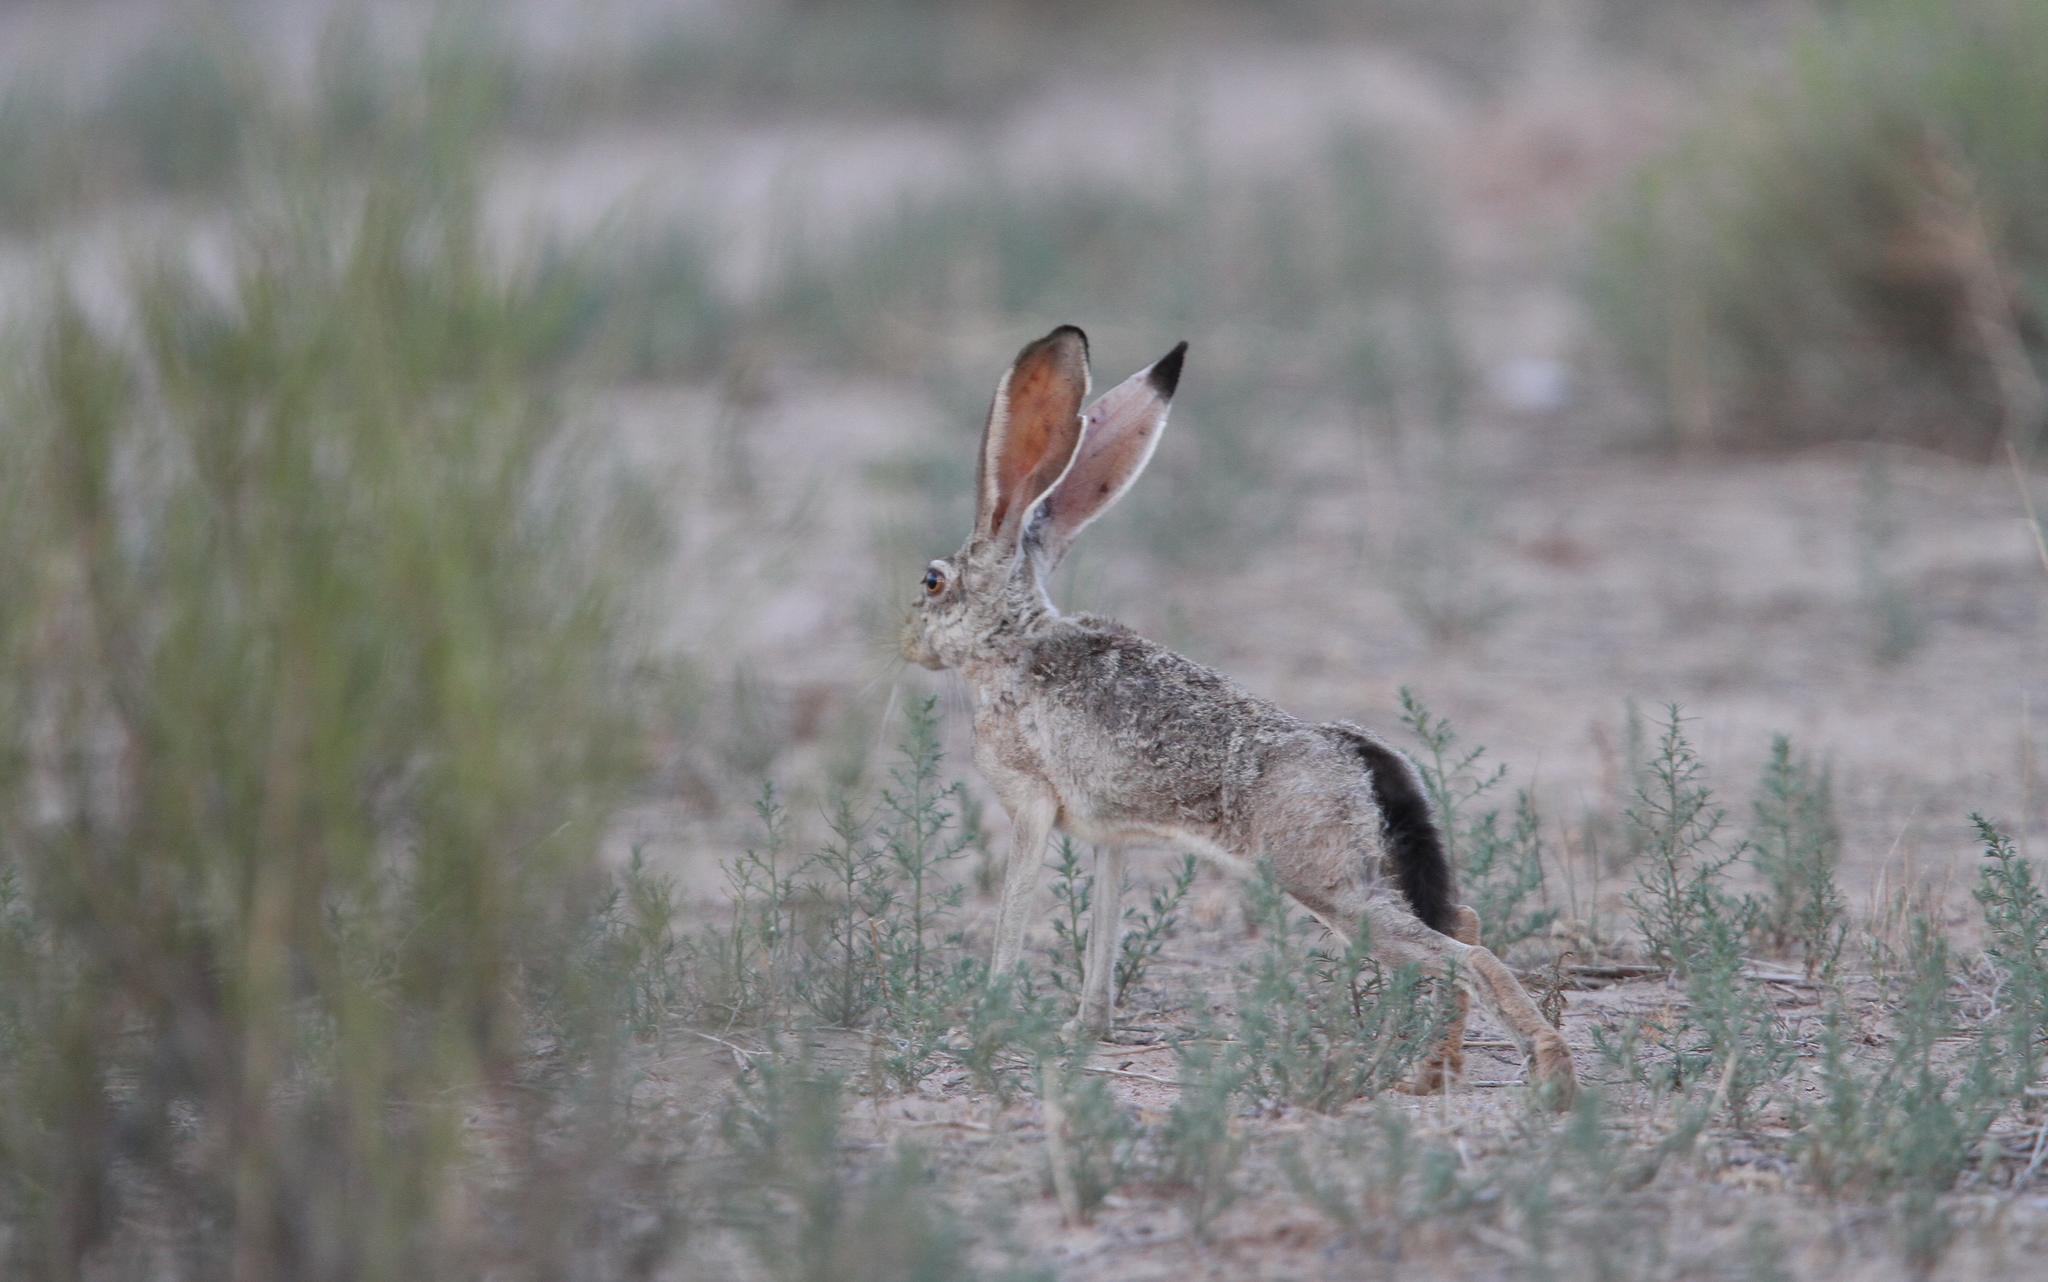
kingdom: Animalia
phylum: Chordata
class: Mammalia
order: Lagomorpha
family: Leporidae
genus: Lepus
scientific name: Lepus californicus
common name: Black-tailed jackrabbit
